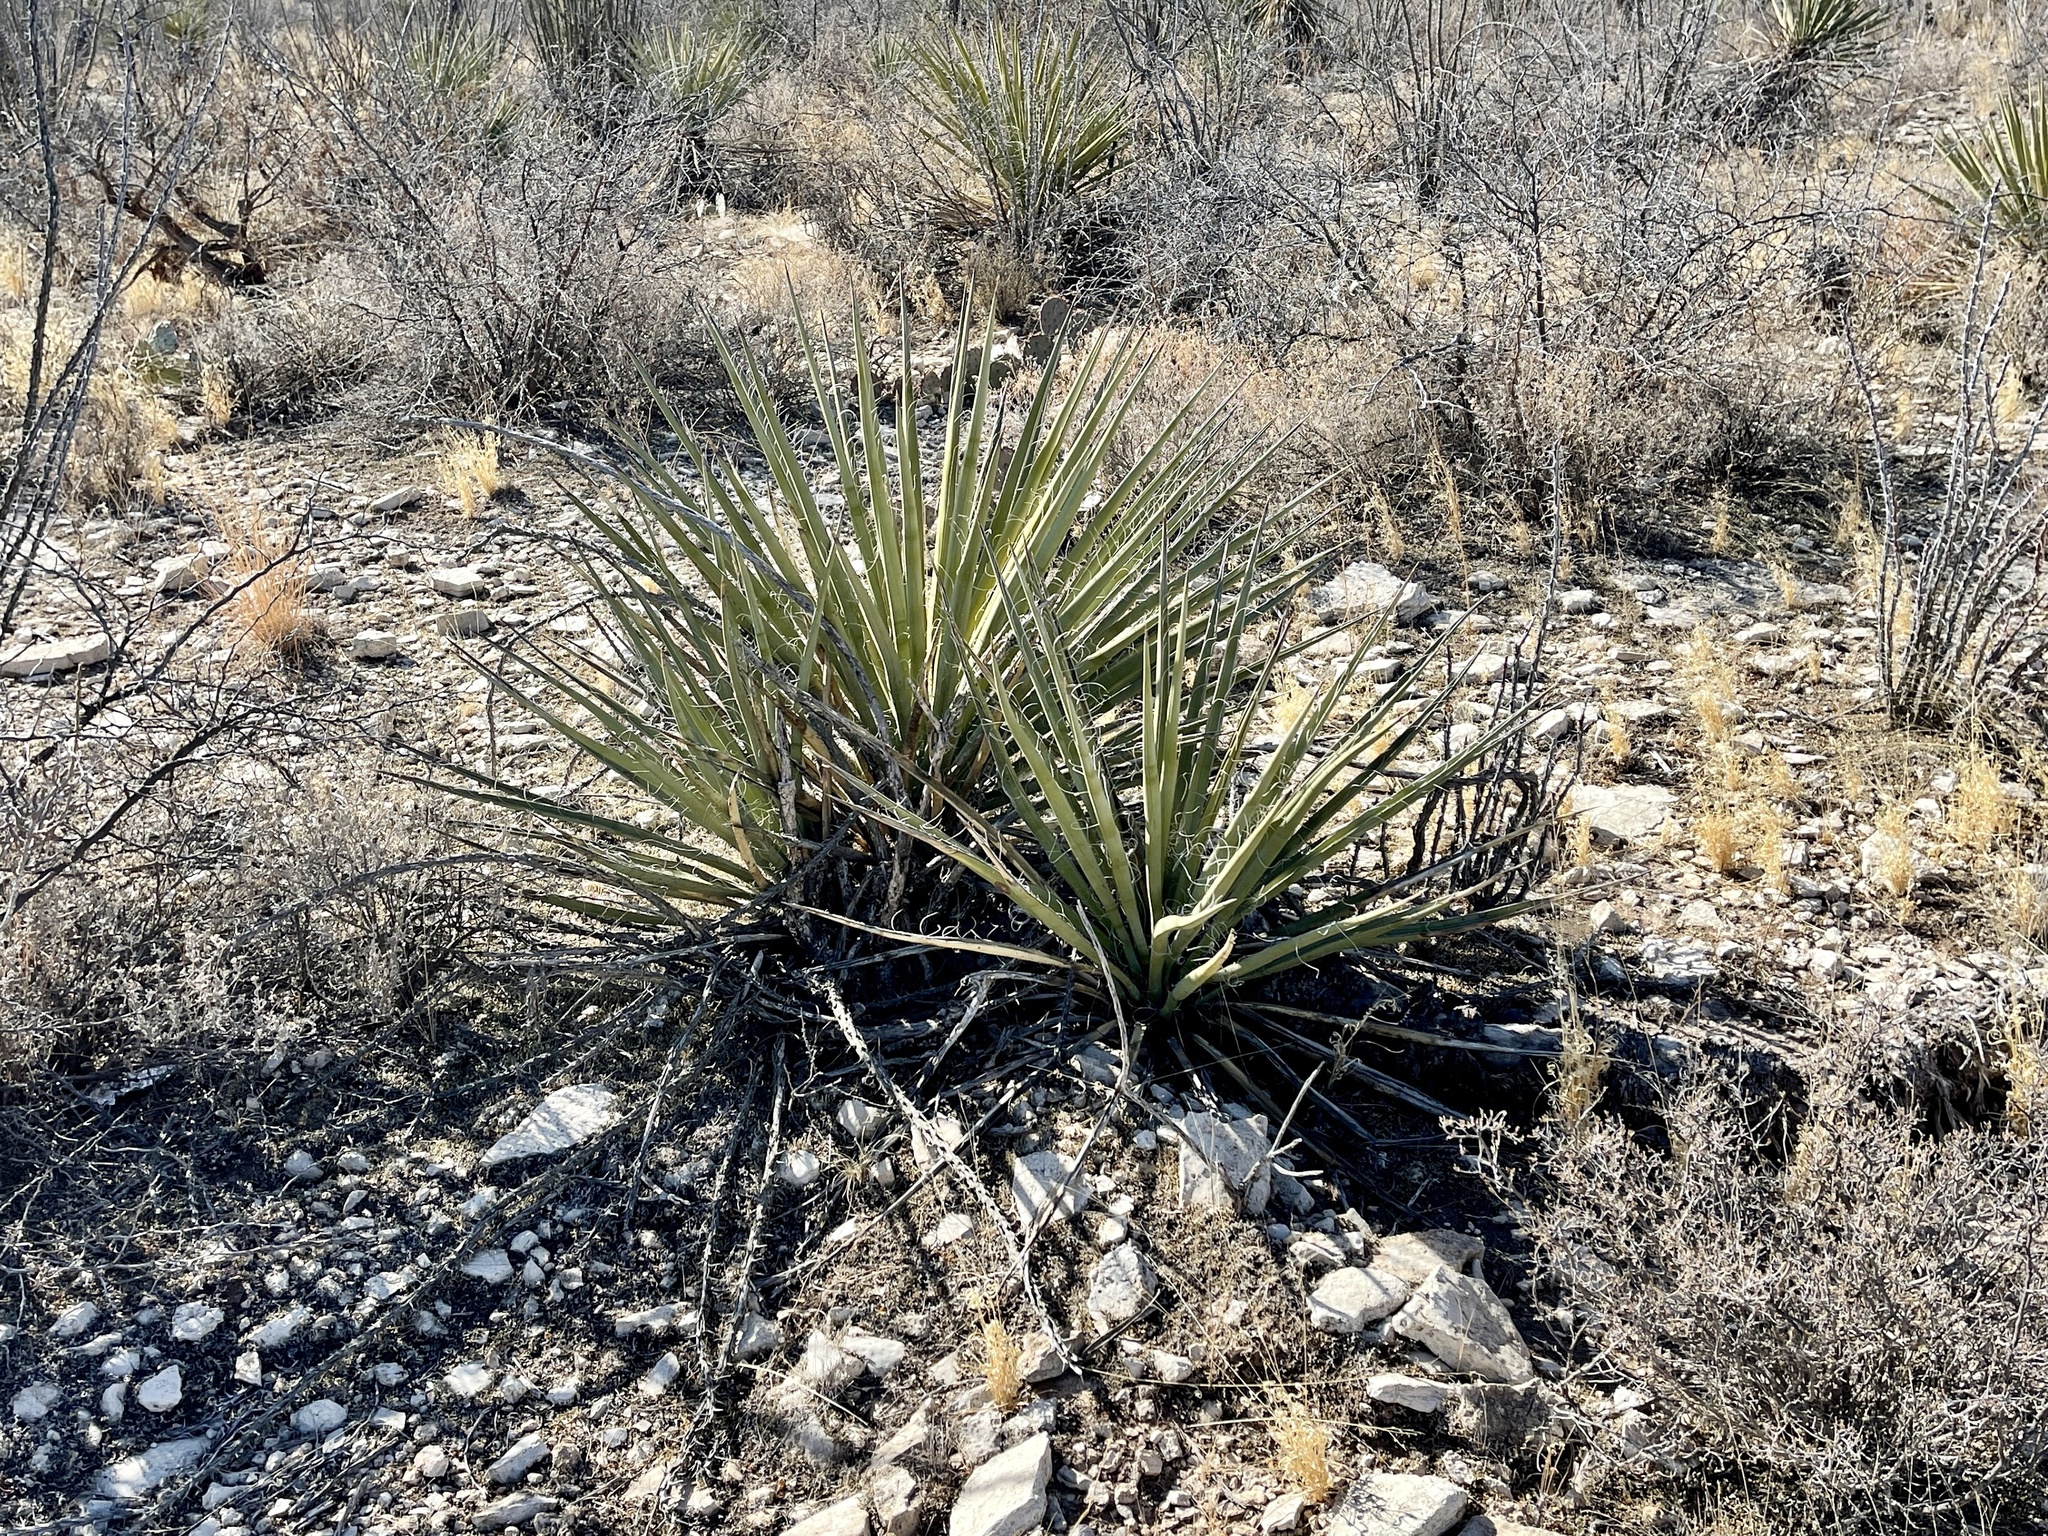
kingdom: Plantae
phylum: Tracheophyta
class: Liliopsida
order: Asparagales
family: Asparagaceae
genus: Yucca
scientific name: Yucca baccata
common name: Banana yucca
